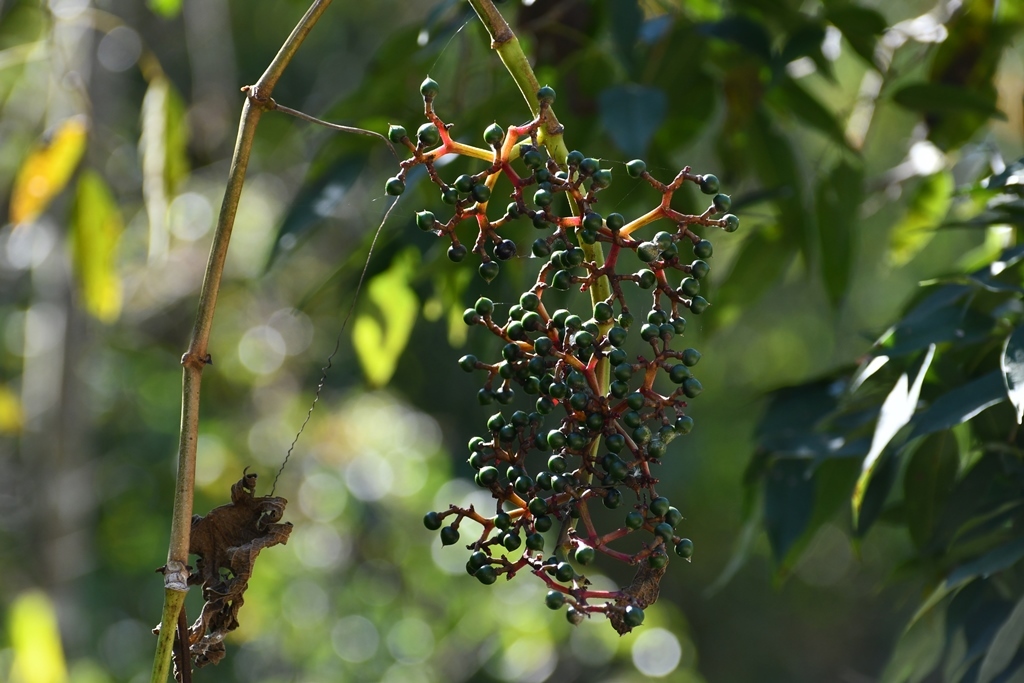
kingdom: Plantae
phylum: Tracheophyta
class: Magnoliopsida
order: Vitales
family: Vitaceae
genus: Cissus
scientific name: Cissus biformifolia
